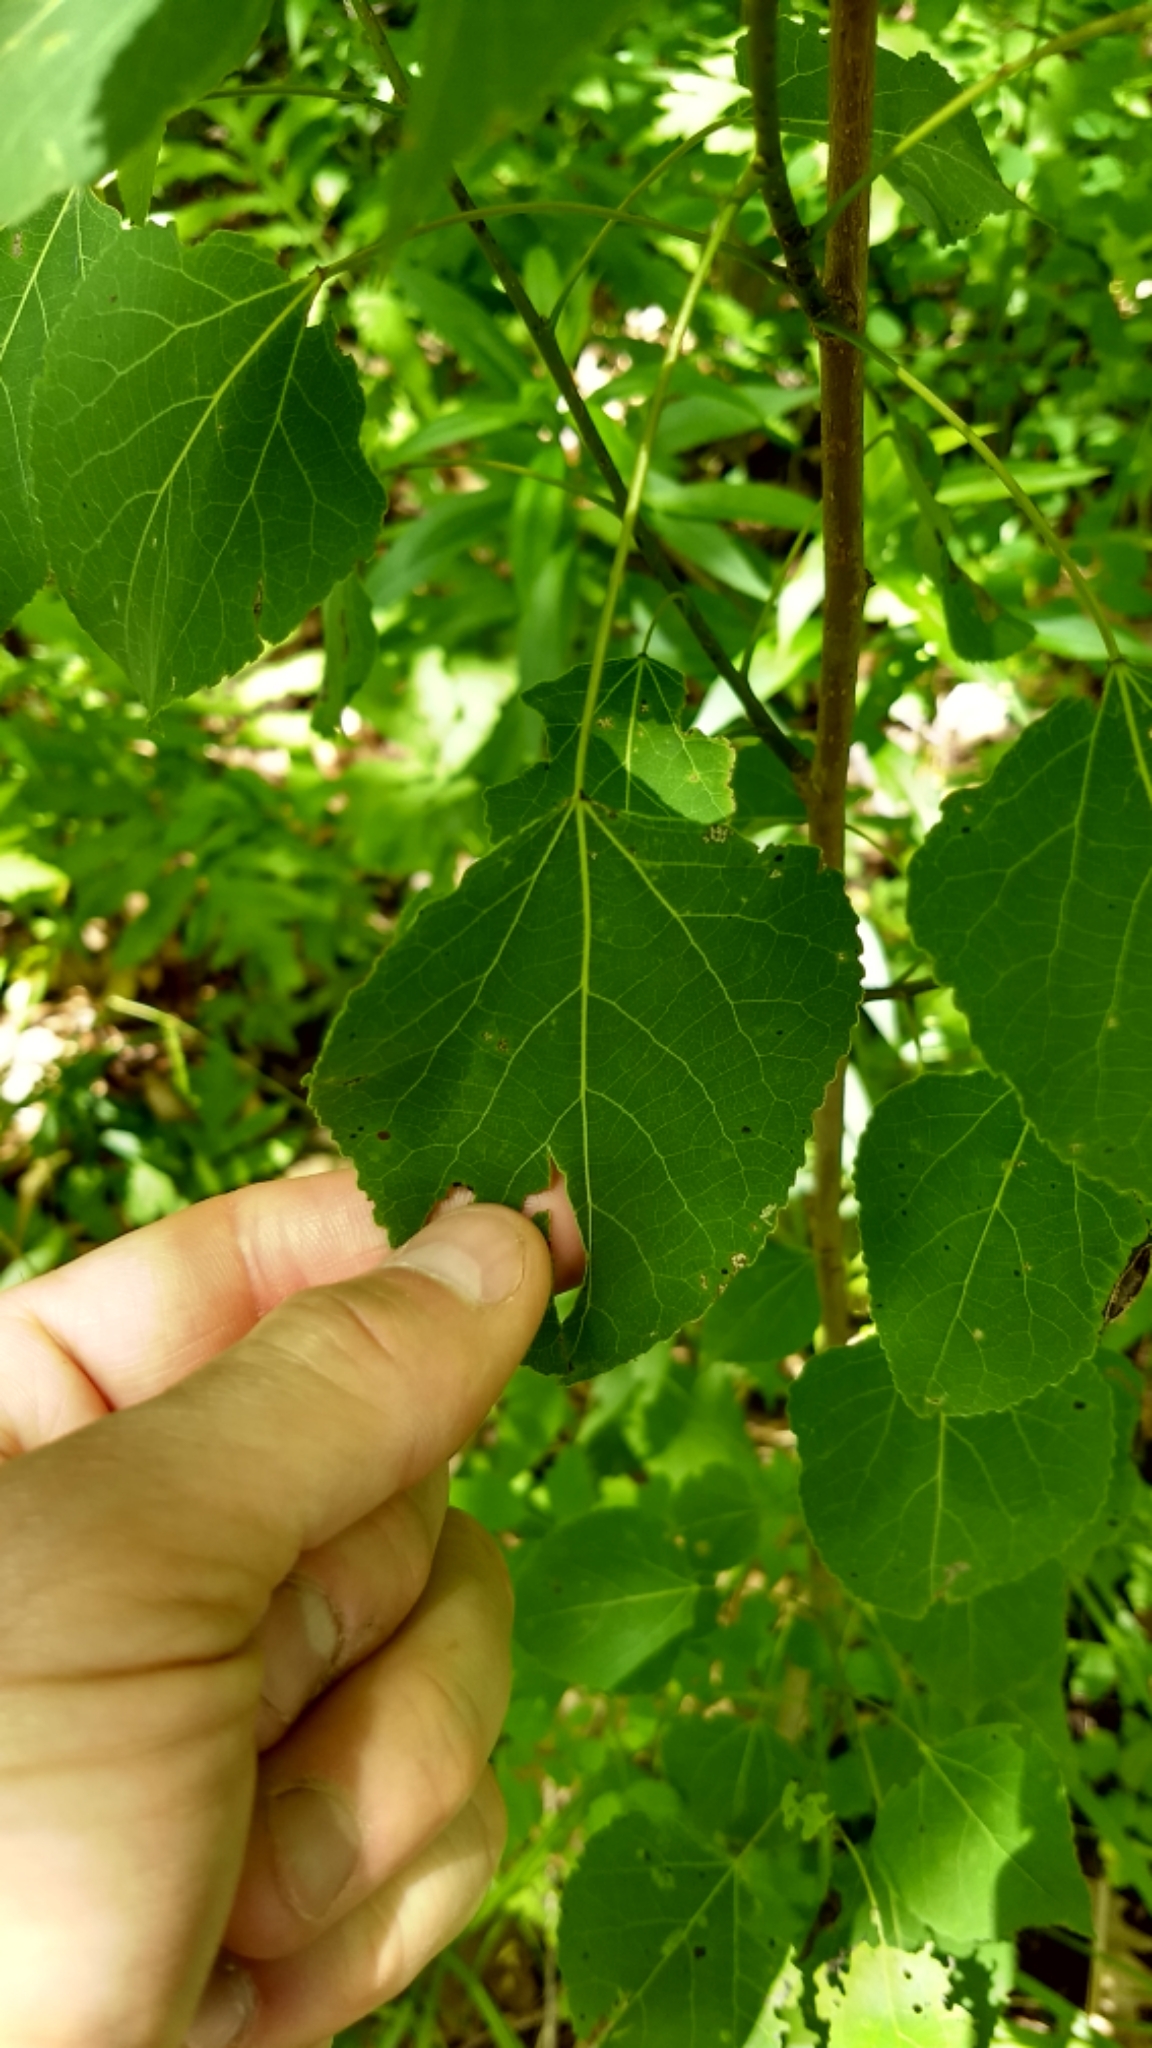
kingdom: Plantae
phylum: Tracheophyta
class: Magnoliopsida
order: Malpighiales
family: Salicaceae
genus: Populus
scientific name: Populus tremuloides
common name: Quaking aspen
